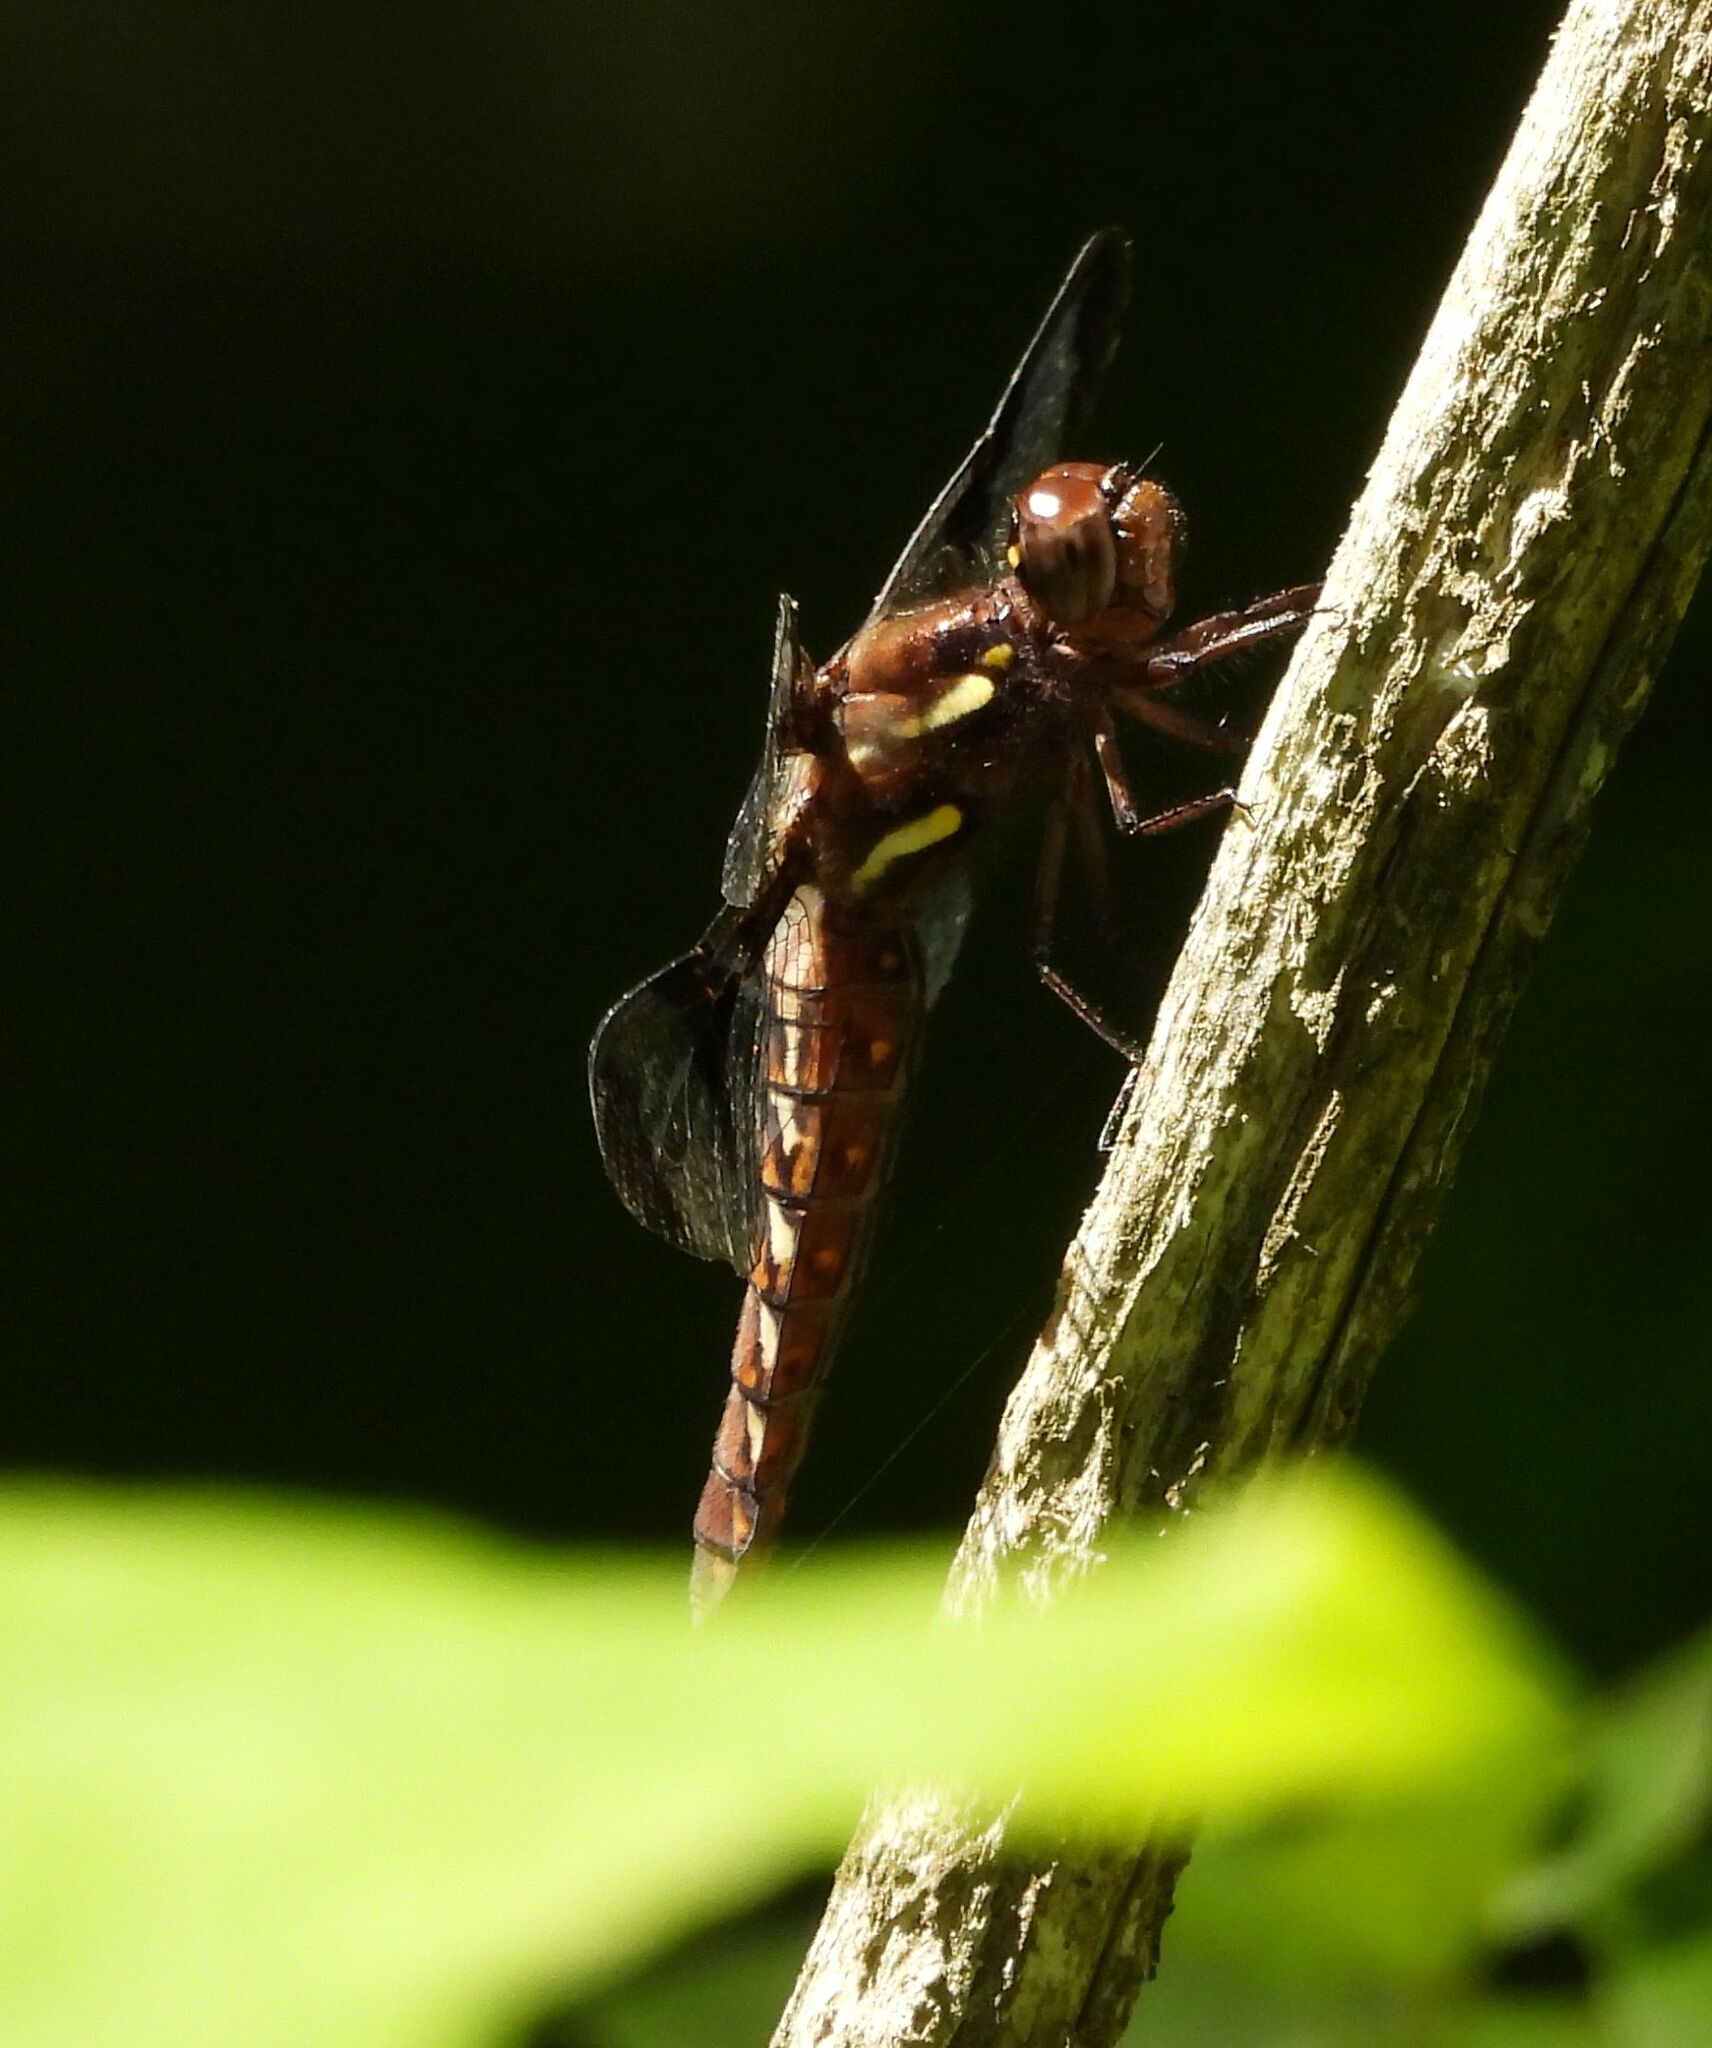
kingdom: Animalia
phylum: Arthropoda
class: Insecta
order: Odonata
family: Libellulidae
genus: Plathemis
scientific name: Plathemis lydia
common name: Common whitetail
